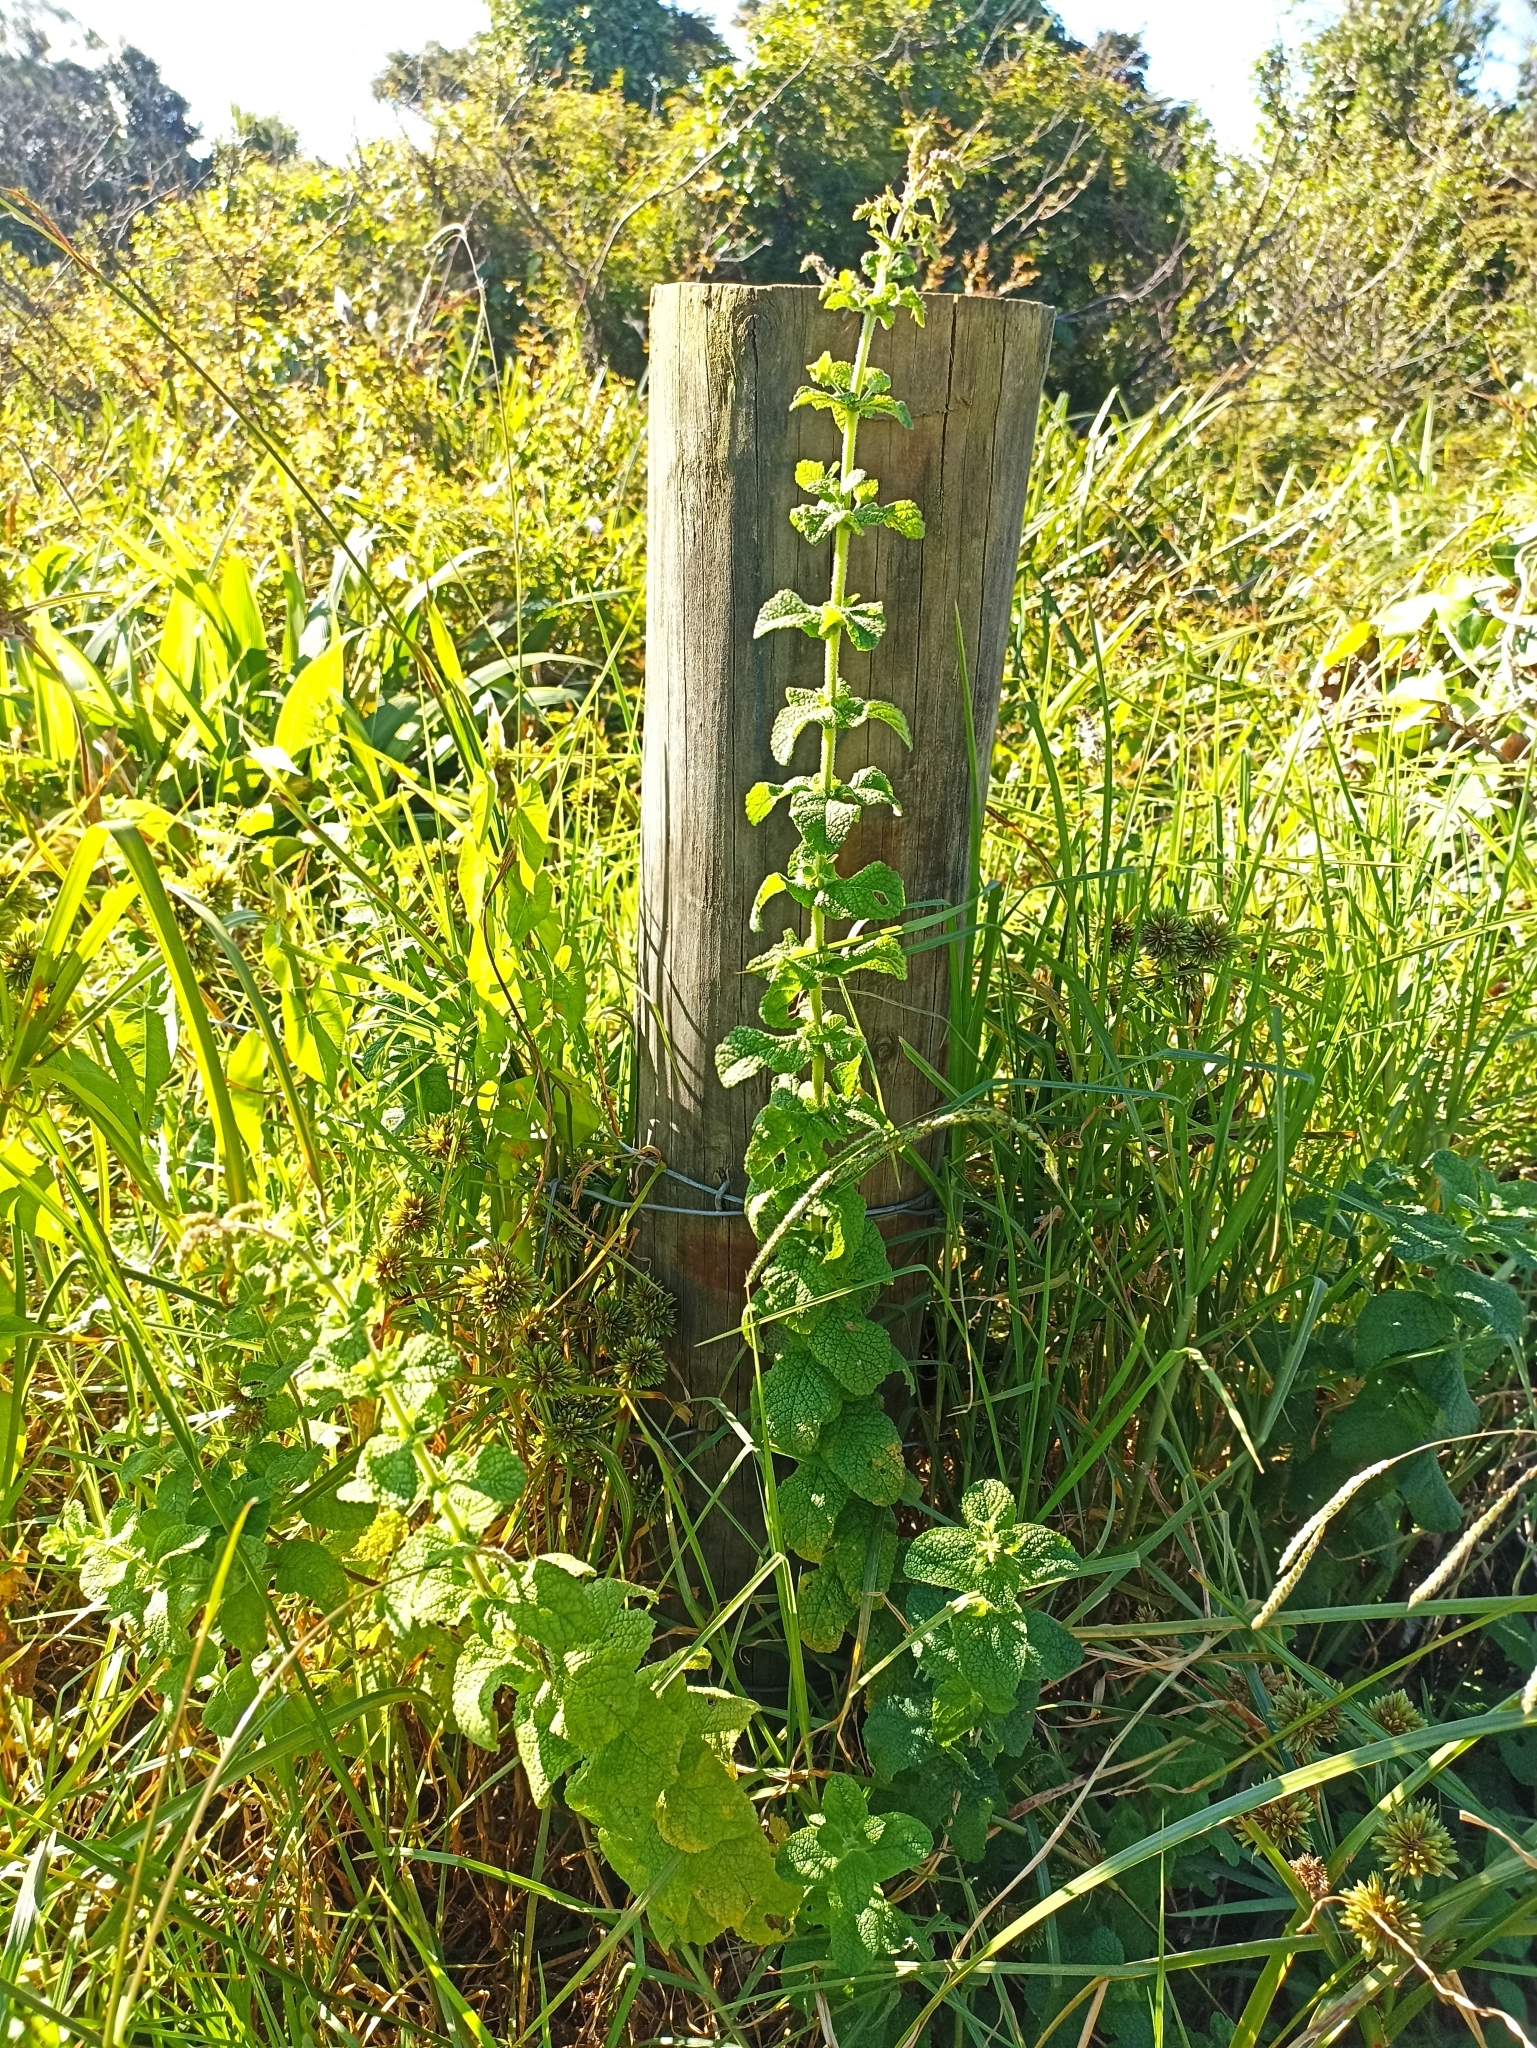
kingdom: Plantae
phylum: Tracheophyta
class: Magnoliopsida
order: Lamiales
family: Lamiaceae
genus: Mentha
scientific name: Mentha suaveolens
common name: Apple mint
